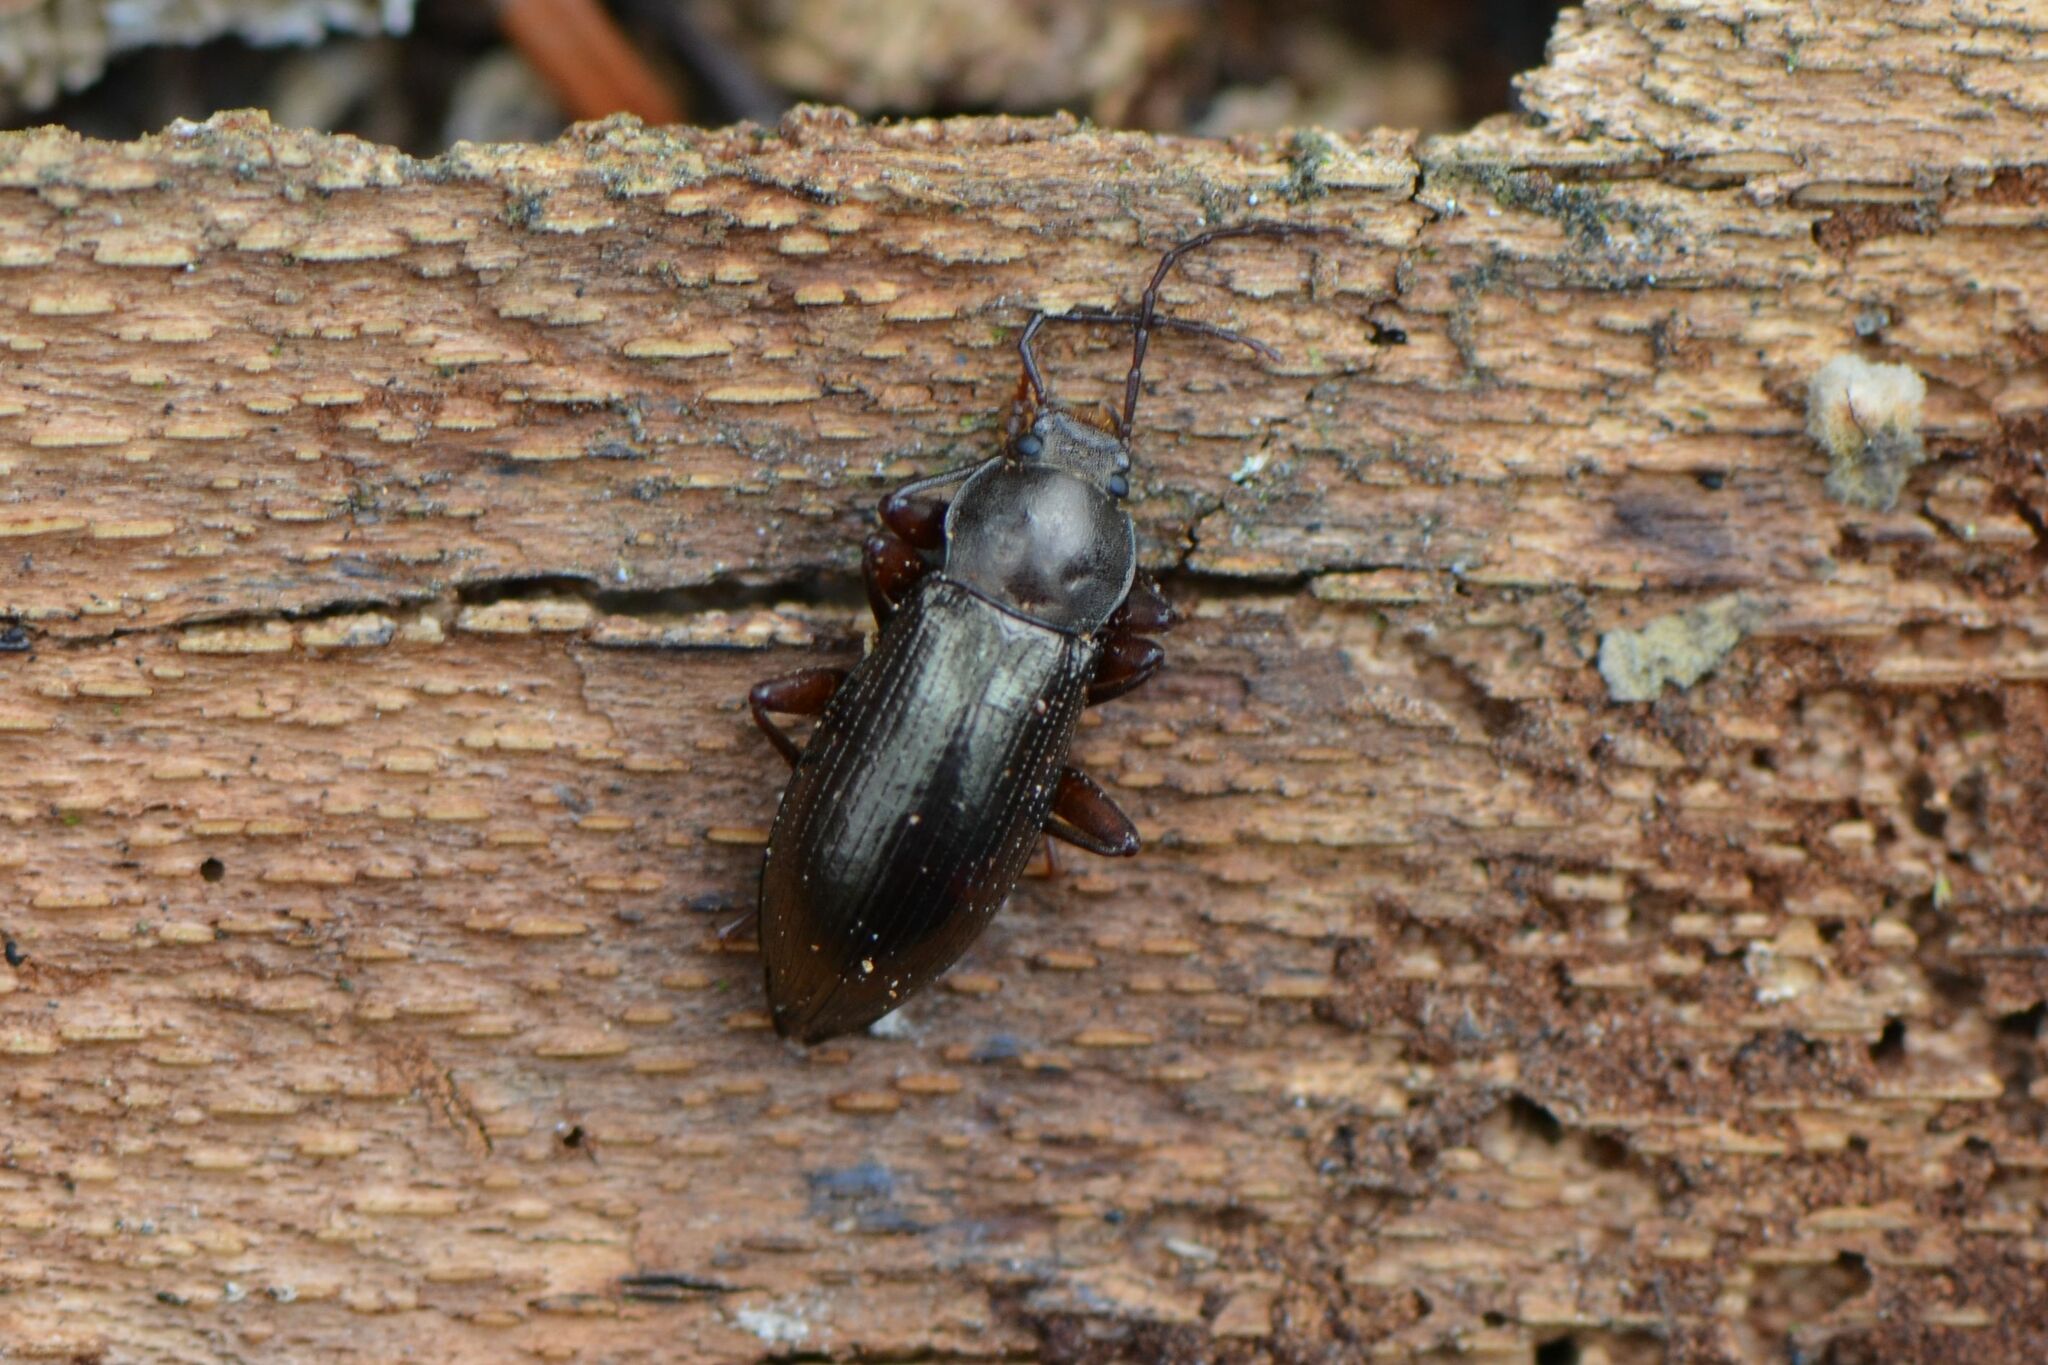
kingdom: Animalia
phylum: Arthropoda
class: Insecta
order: Coleoptera
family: Tenebrionidae
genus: Stenomax
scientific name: Stenomax aeneus
